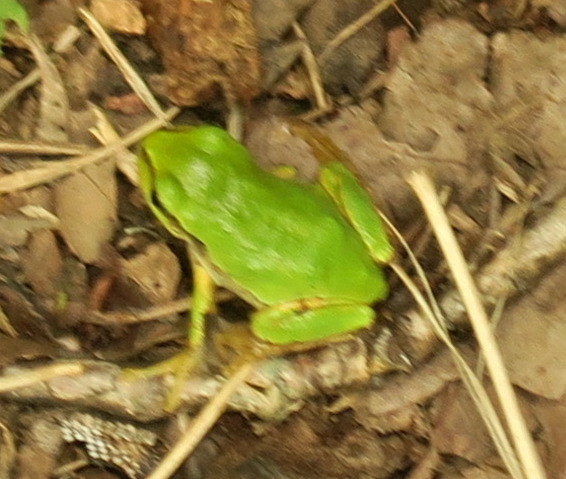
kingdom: Animalia
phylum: Chordata
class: Amphibia
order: Anura
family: Hylidae
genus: Dryophytes
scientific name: Dryophytes japonicus
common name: Japanese treefrog
